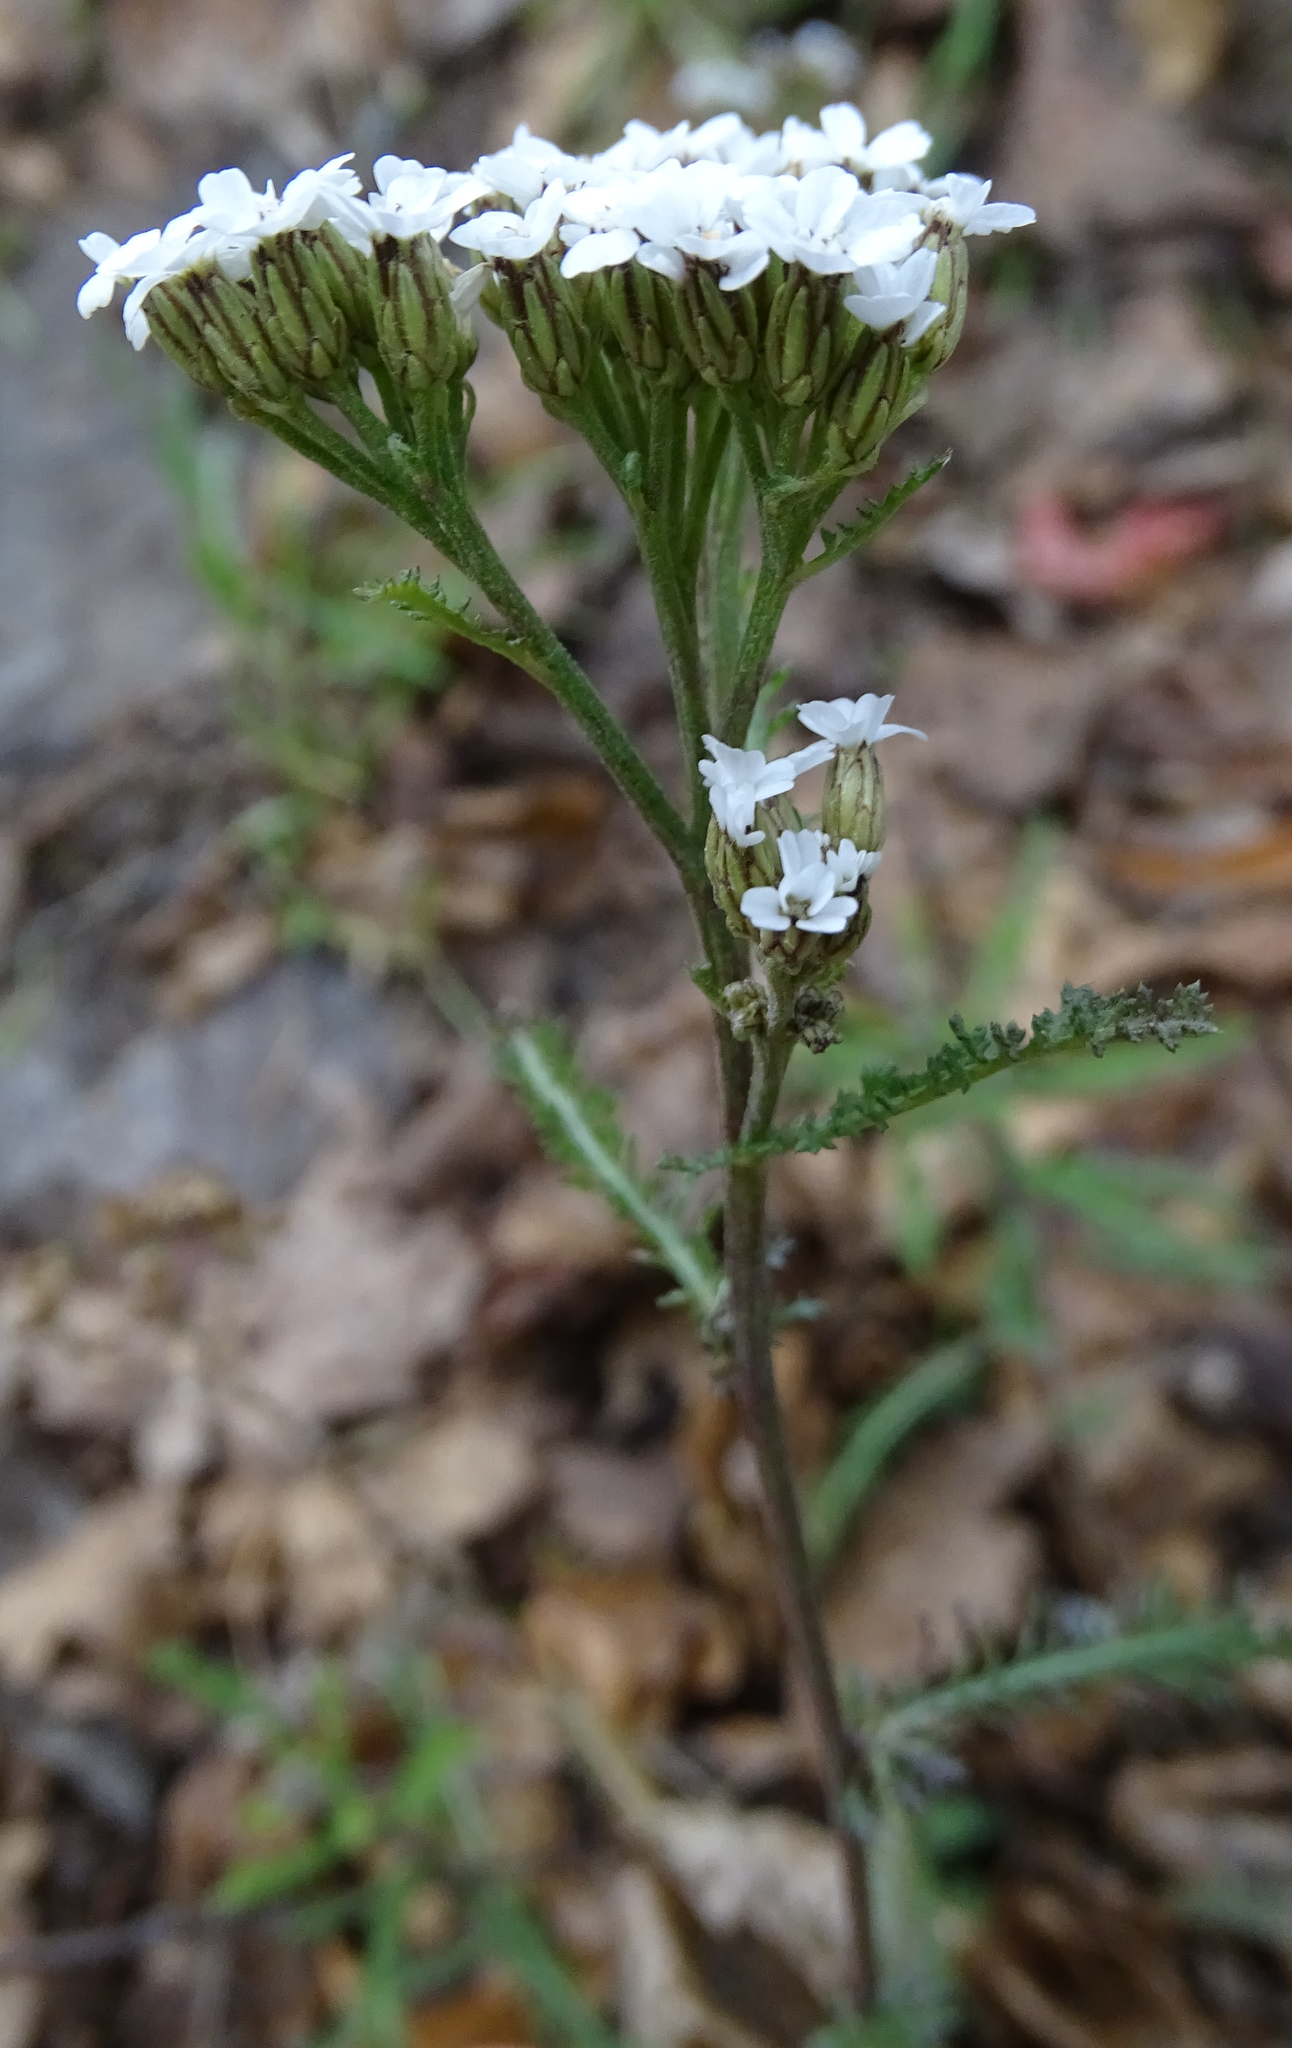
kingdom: Plantae
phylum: Tracheophyta
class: Magnoliopsida
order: Asterales
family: Asteraceae
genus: Achillea
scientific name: Achillea millefolium
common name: Yarrow
